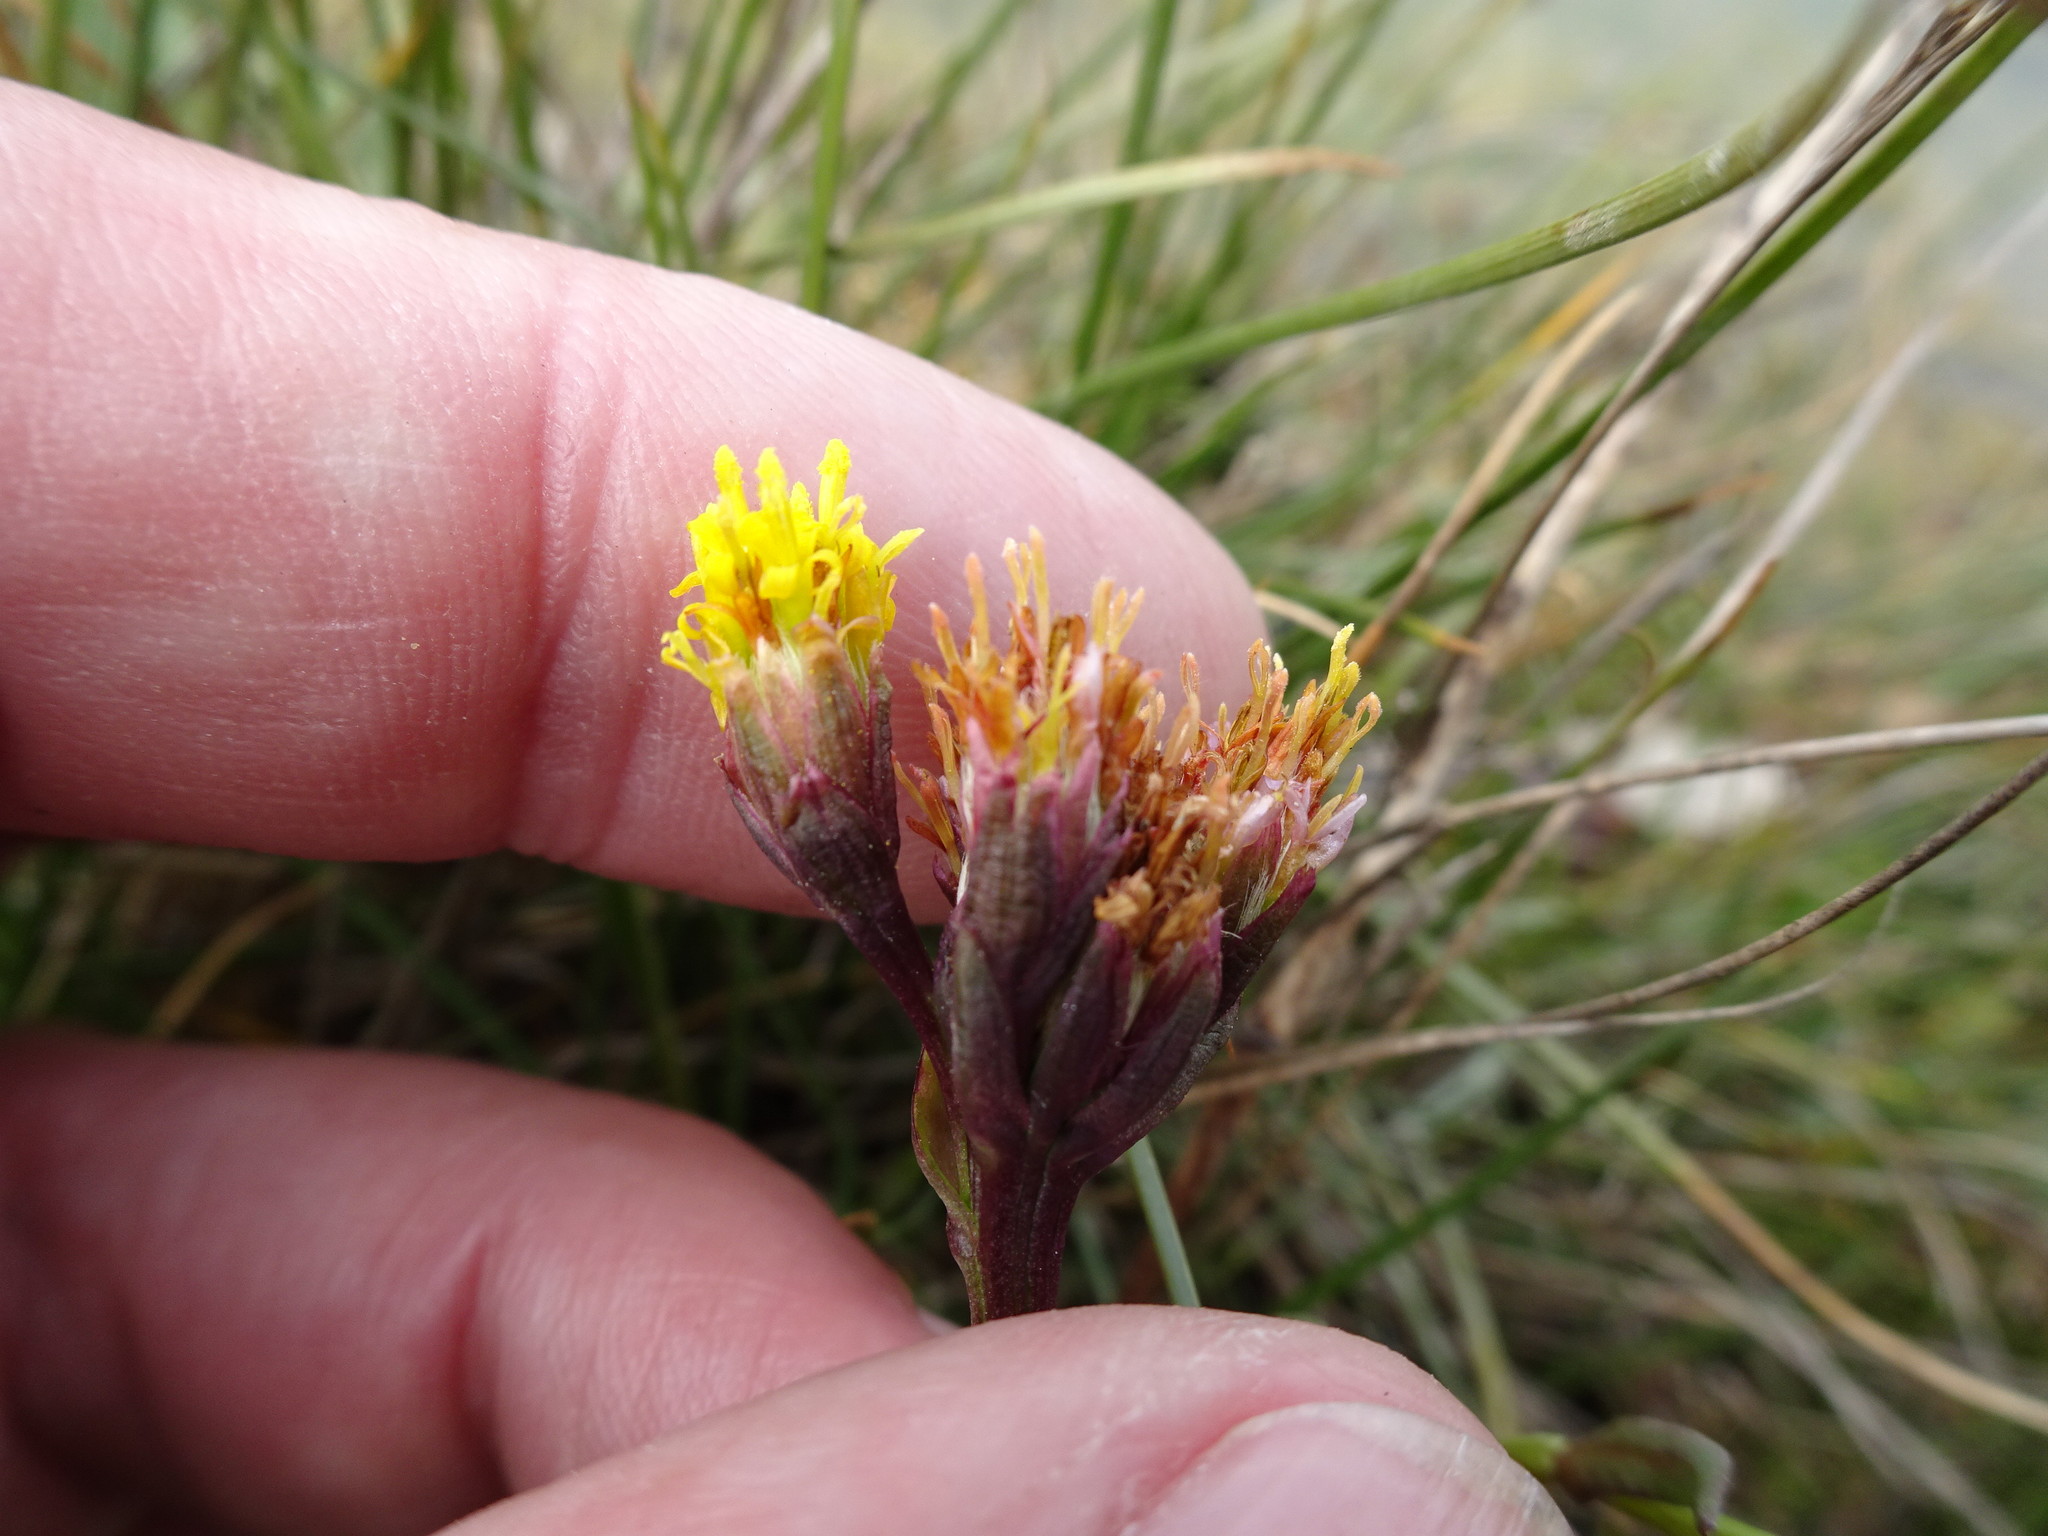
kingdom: Plantae
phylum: Tracheophyta
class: Magnoliopsida
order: Asterales
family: Asteraceae
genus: Tripolium
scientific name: Tripolium pannonicum
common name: Sea aster
